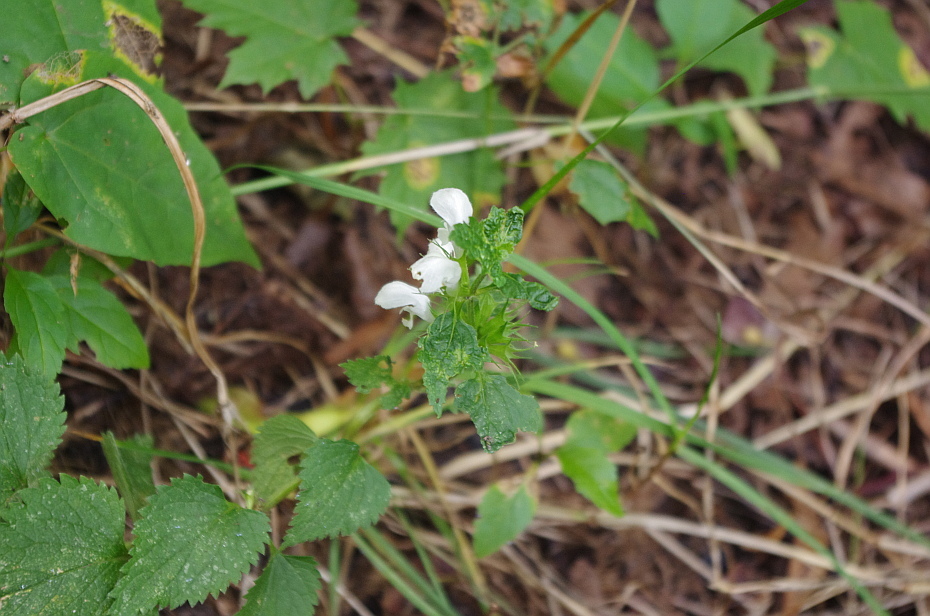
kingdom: Plantae
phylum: Tracheophyta
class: Magnoliopsida
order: Lamiales
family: Lamiaceae
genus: Lamium
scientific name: Lamium album
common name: White dead-nettle
